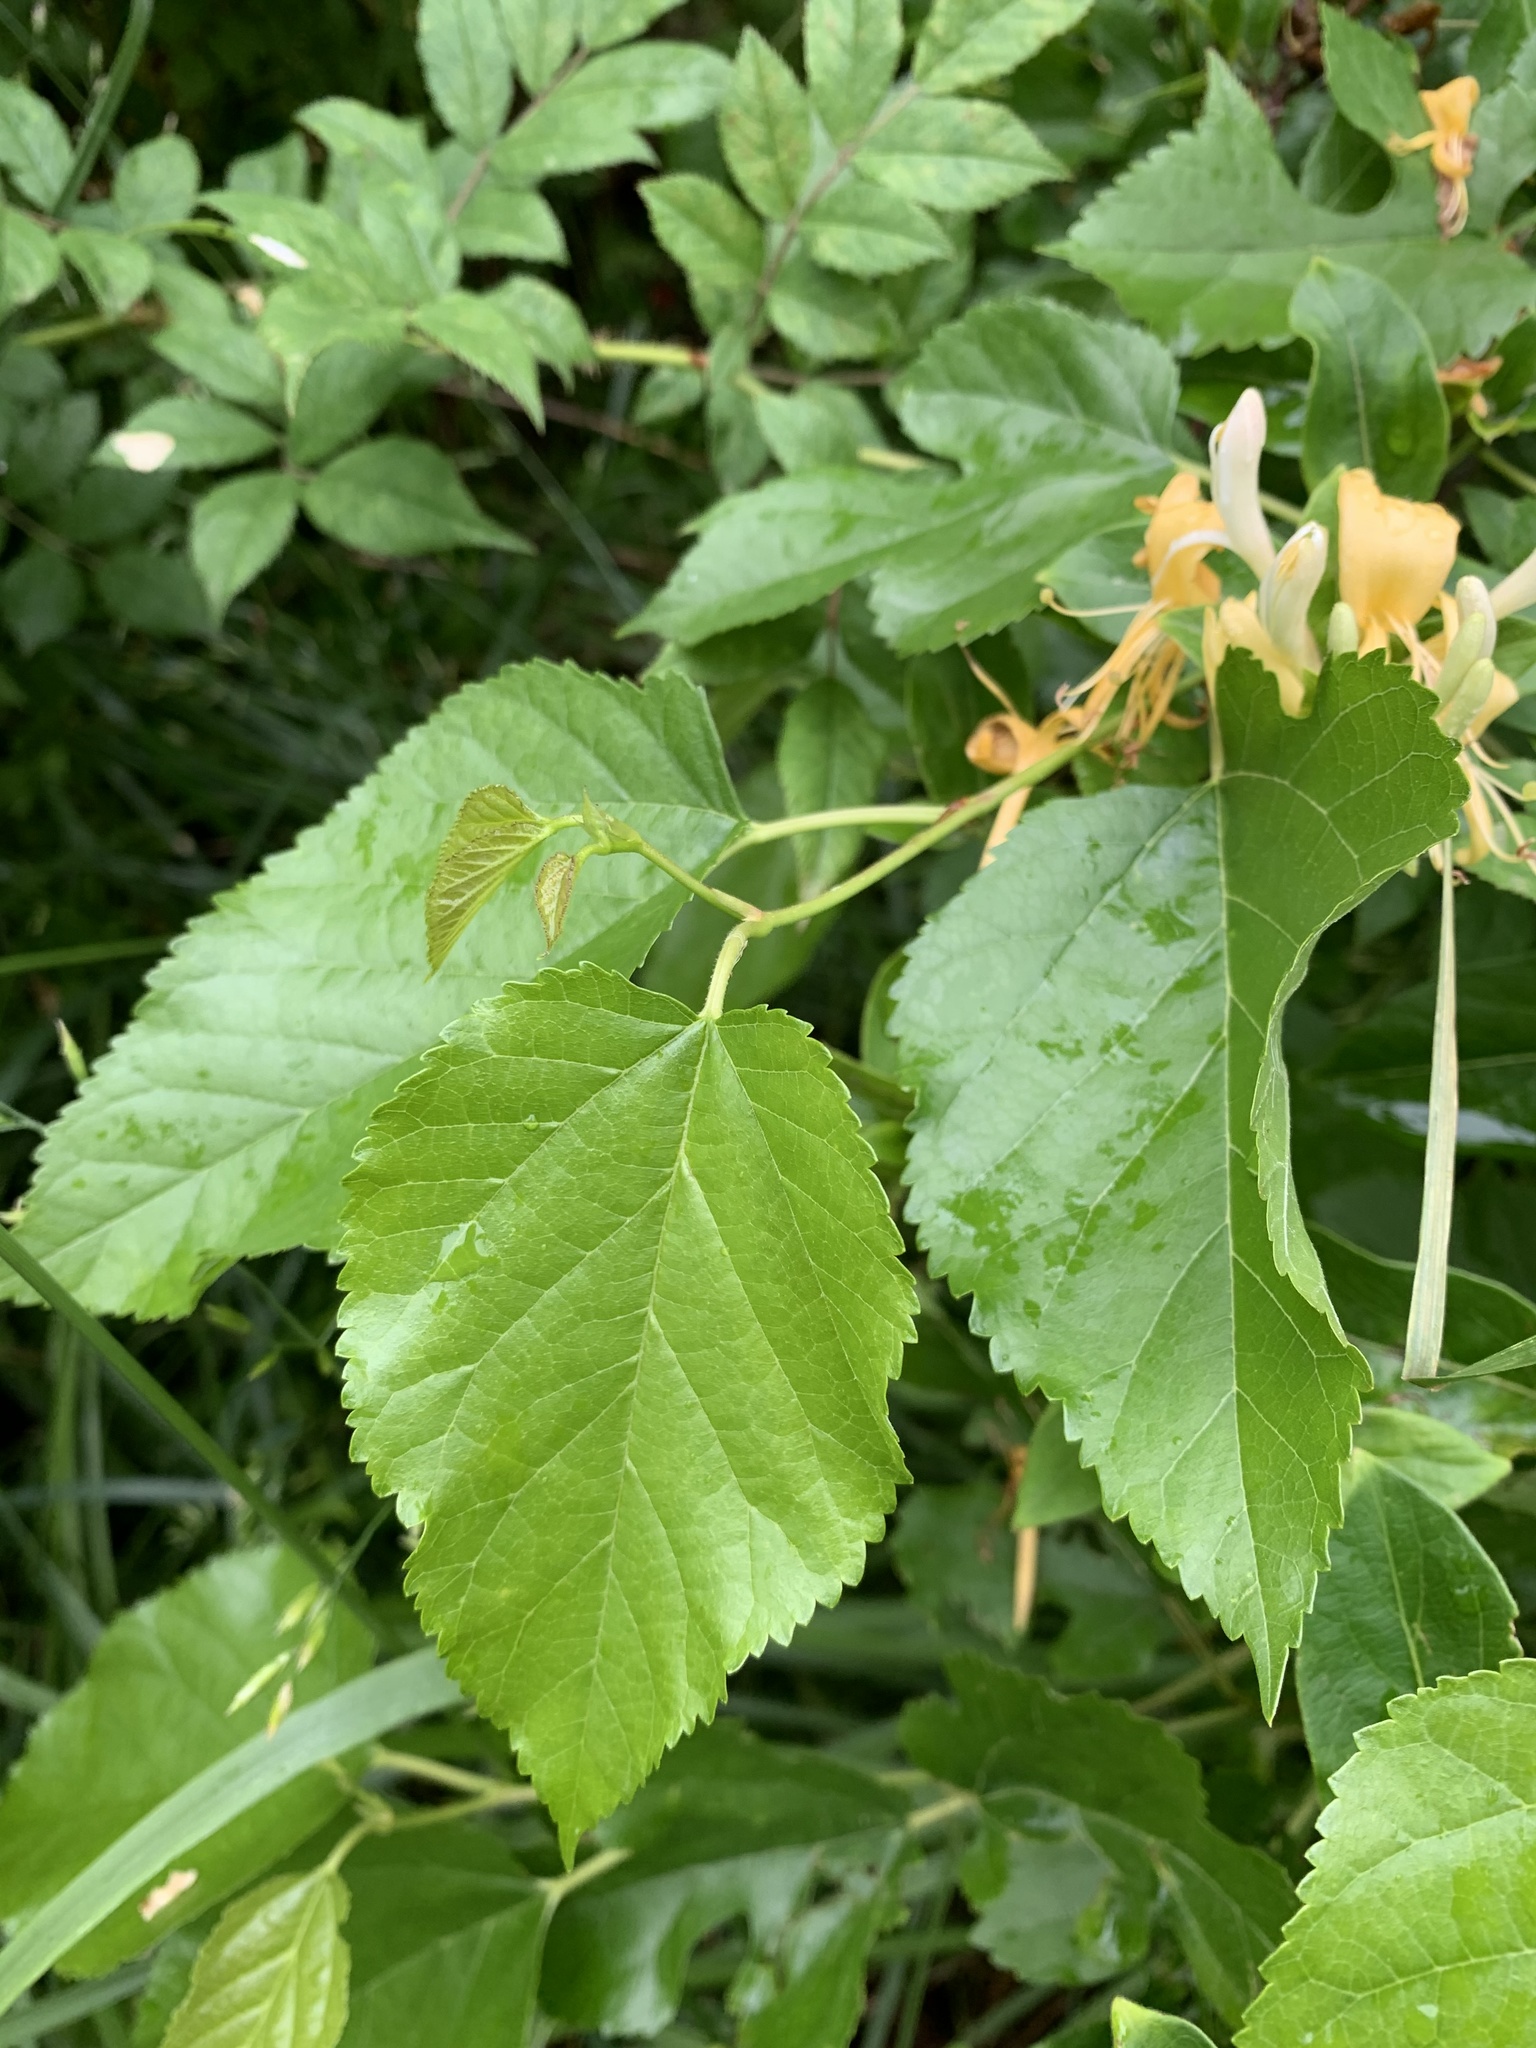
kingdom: Plantae
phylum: Tracheophyta
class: Magnoliopsida
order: Dipsacales
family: Caprifoliaceae
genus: Lonicera
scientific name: Lonicera japonica
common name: Japanese honeysuckle
